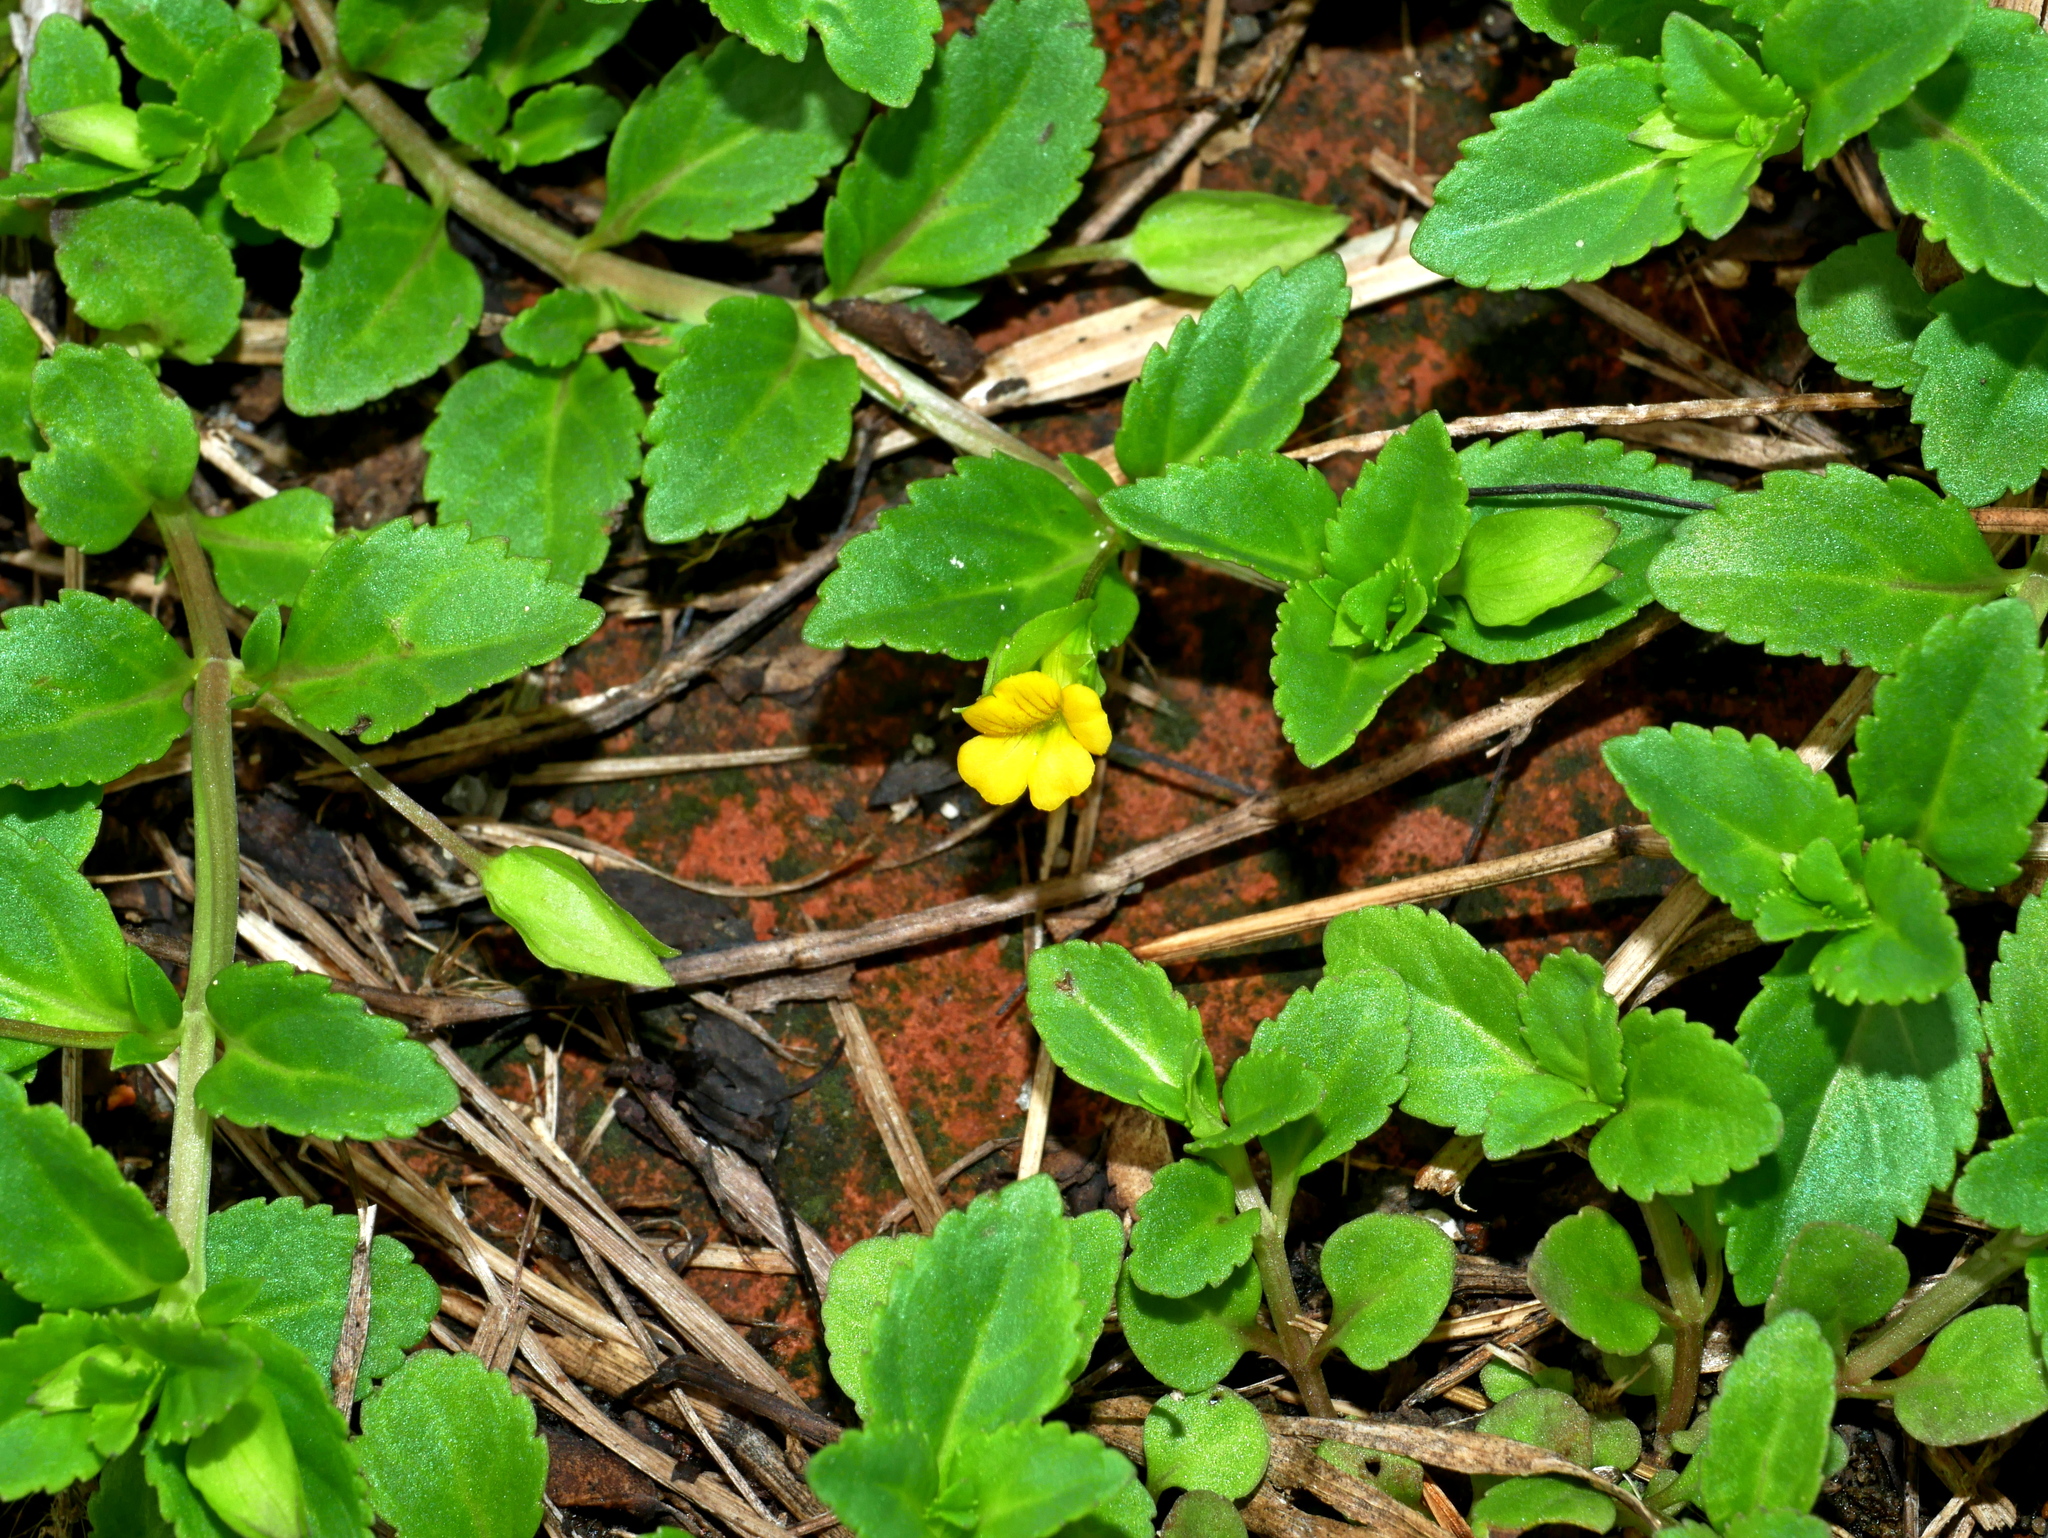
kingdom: Plantae
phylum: Tracheophyta
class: Magnoliopsida
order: Lamiales
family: Plantaginaceae
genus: Mecardonia
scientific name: Mecardonia procumbens
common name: Baby jump-up
